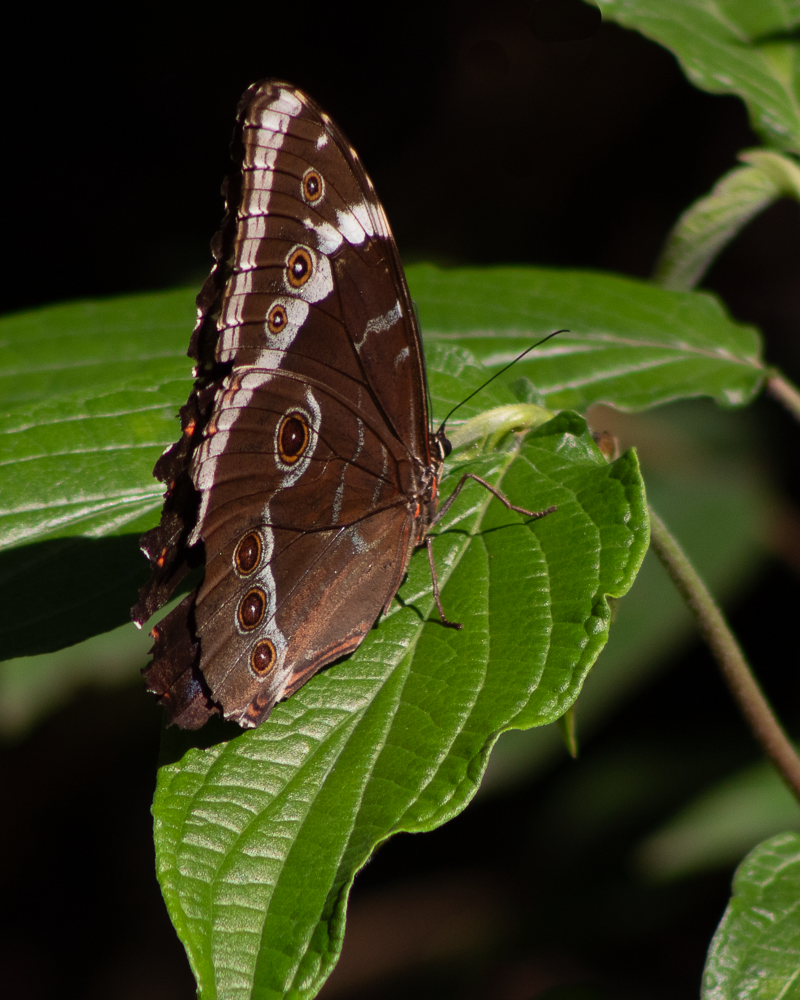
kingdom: Animalia
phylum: Arthropoda
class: Insecta
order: Lepidoptera
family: Nymphalidae
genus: Morpho
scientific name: Morpho helenor
